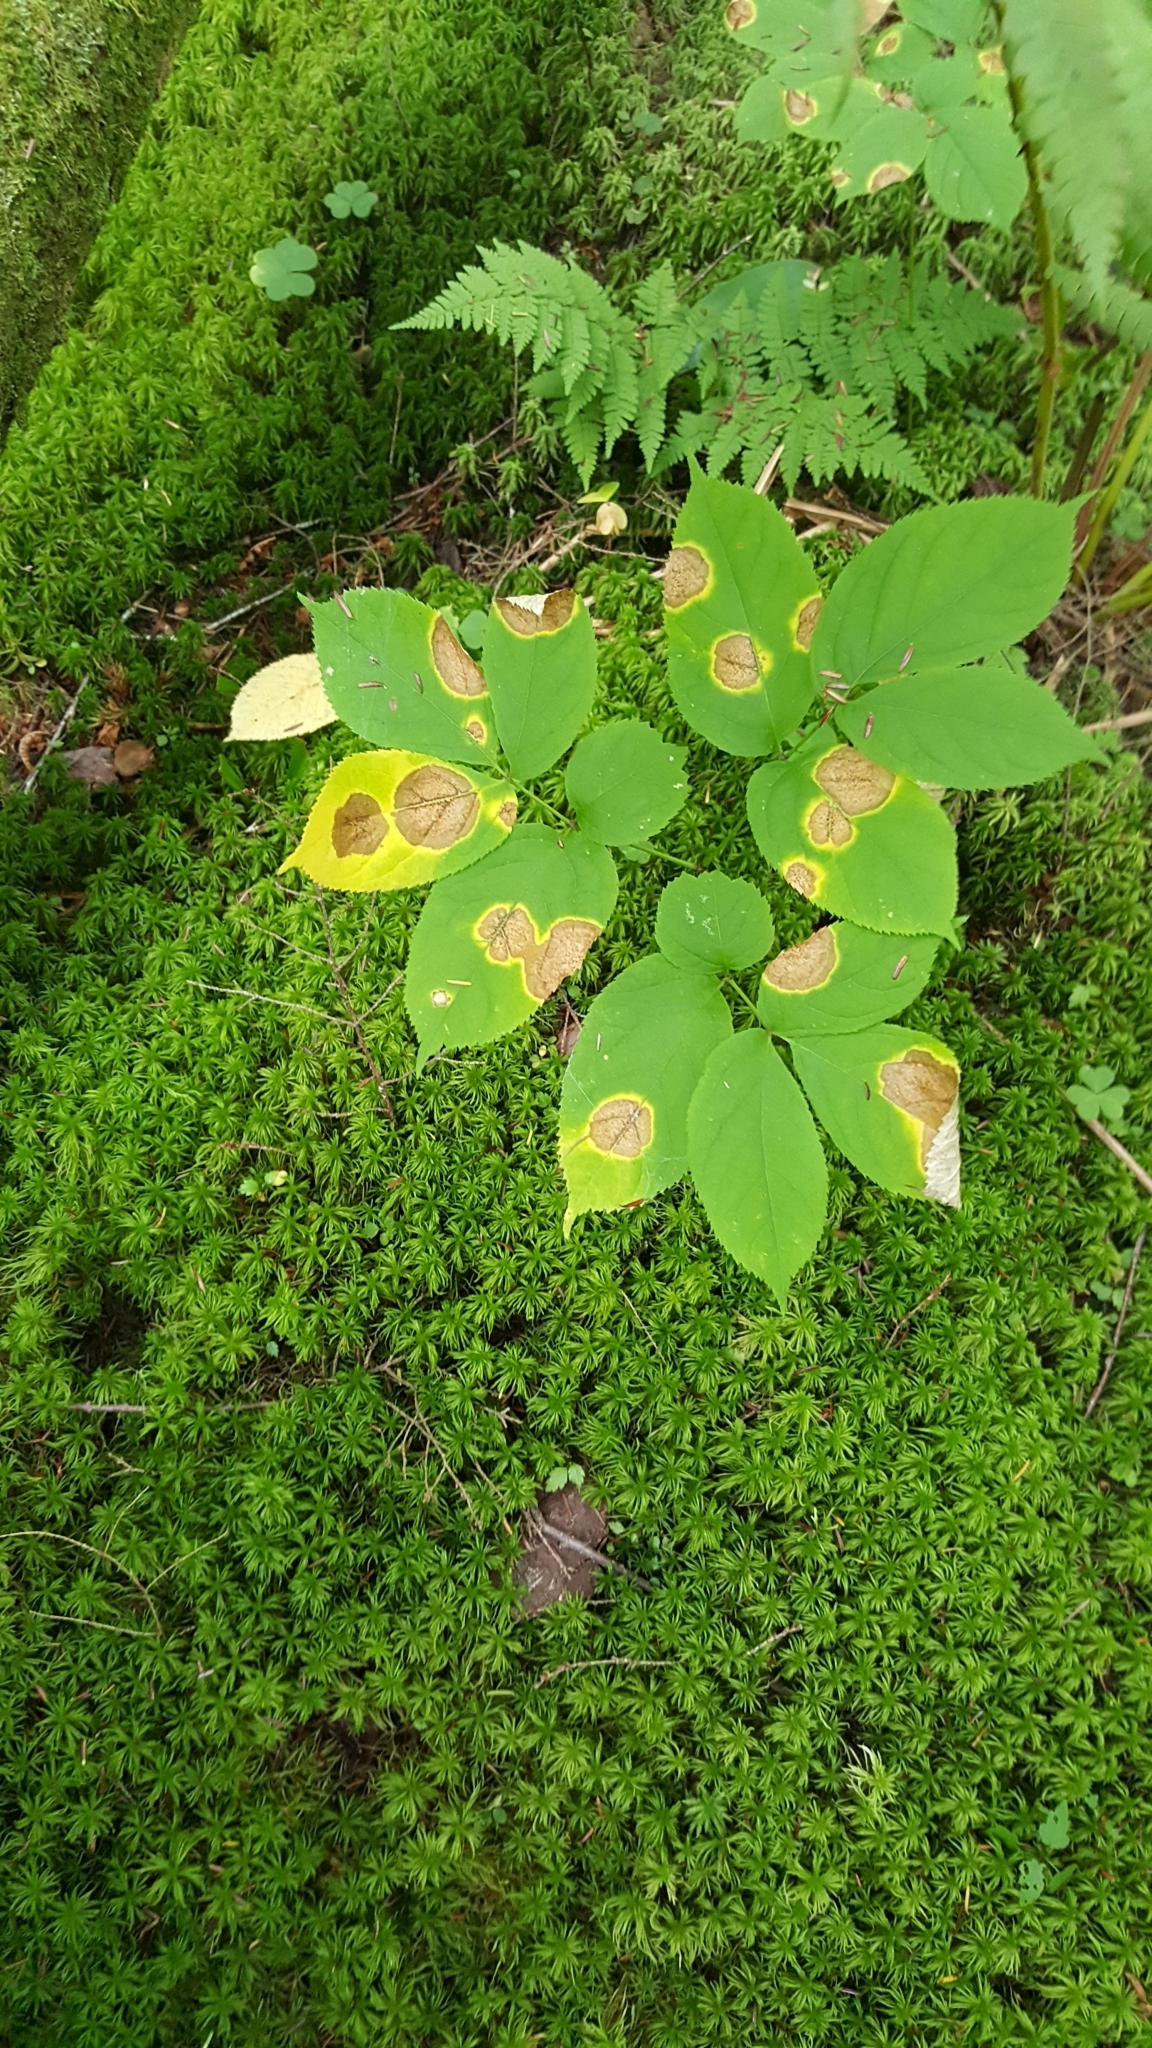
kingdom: Plantae
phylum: Tracheophyta
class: Magnoliopsida
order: Apiales
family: Araliaceae
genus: Aralia
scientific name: Aralia nudicaulis
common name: Wild sarsaparilla
